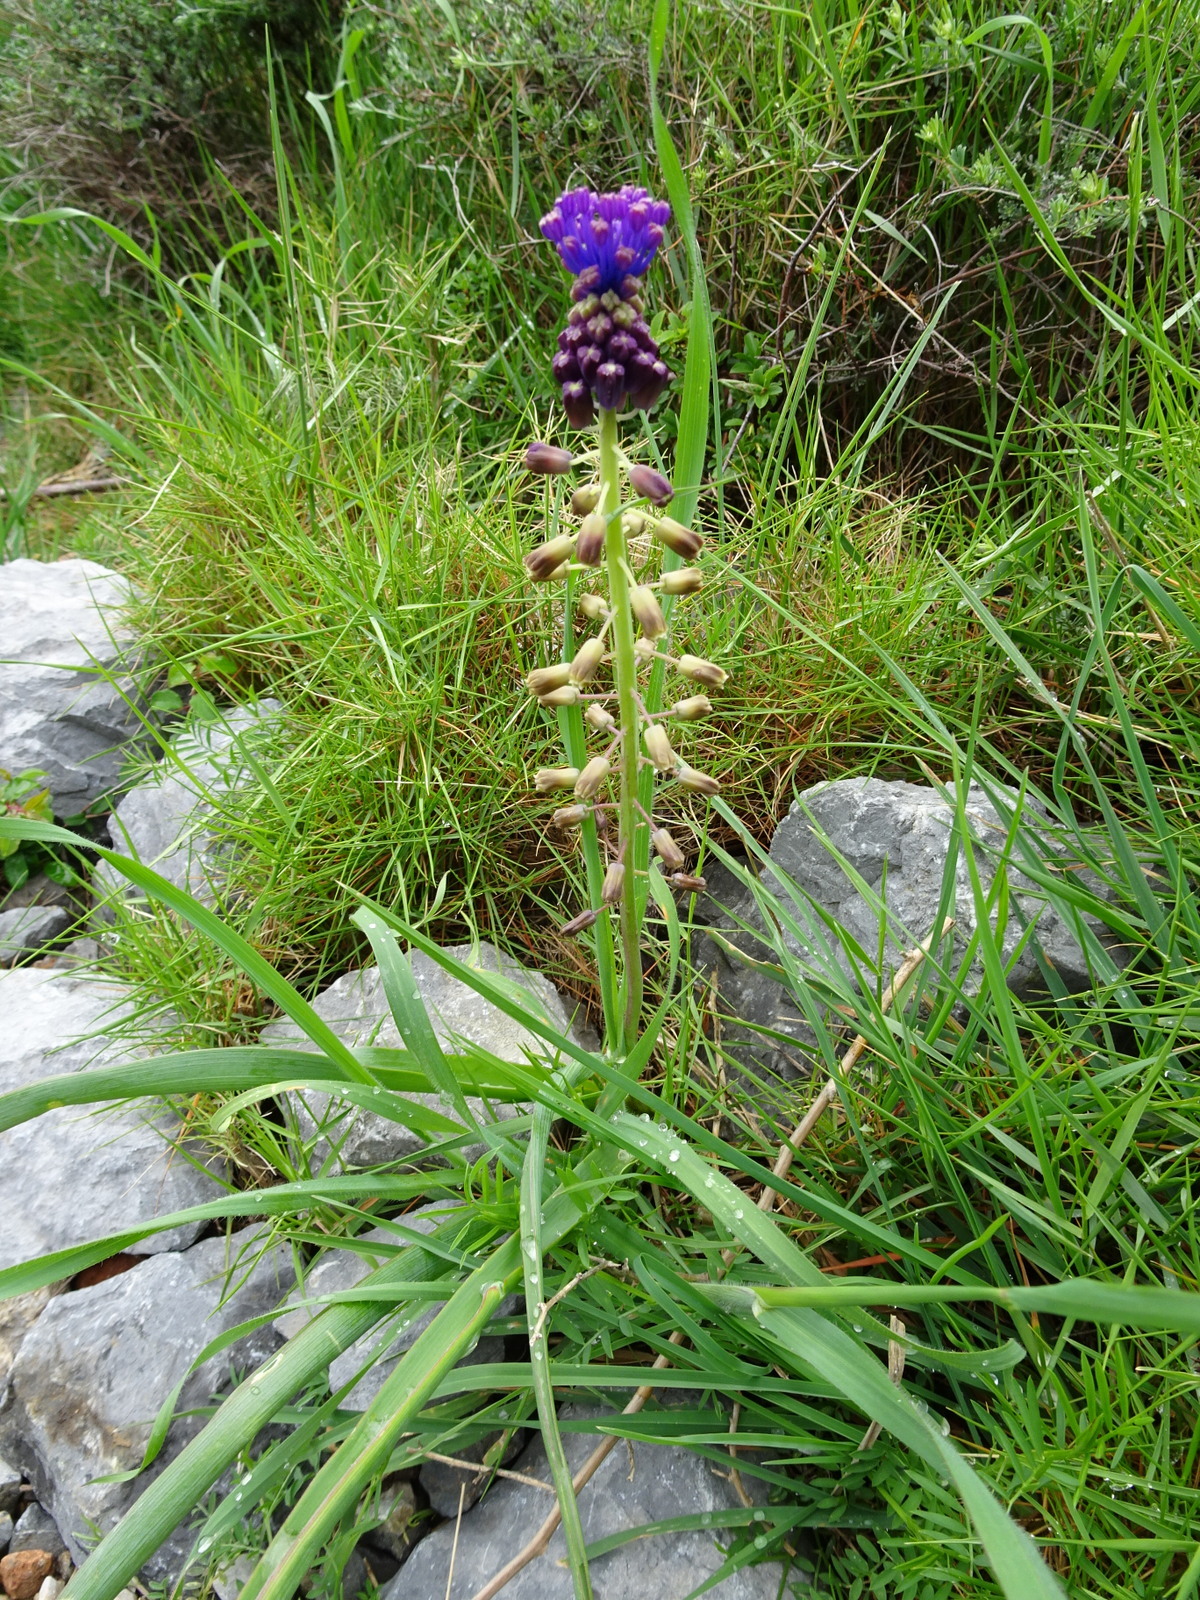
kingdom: Plantae
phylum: Tracheophyta
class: Liliopsida
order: Asparagales
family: Asparagaceae
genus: Muscari
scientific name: Muscari comosum
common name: Tassel hyacinth
